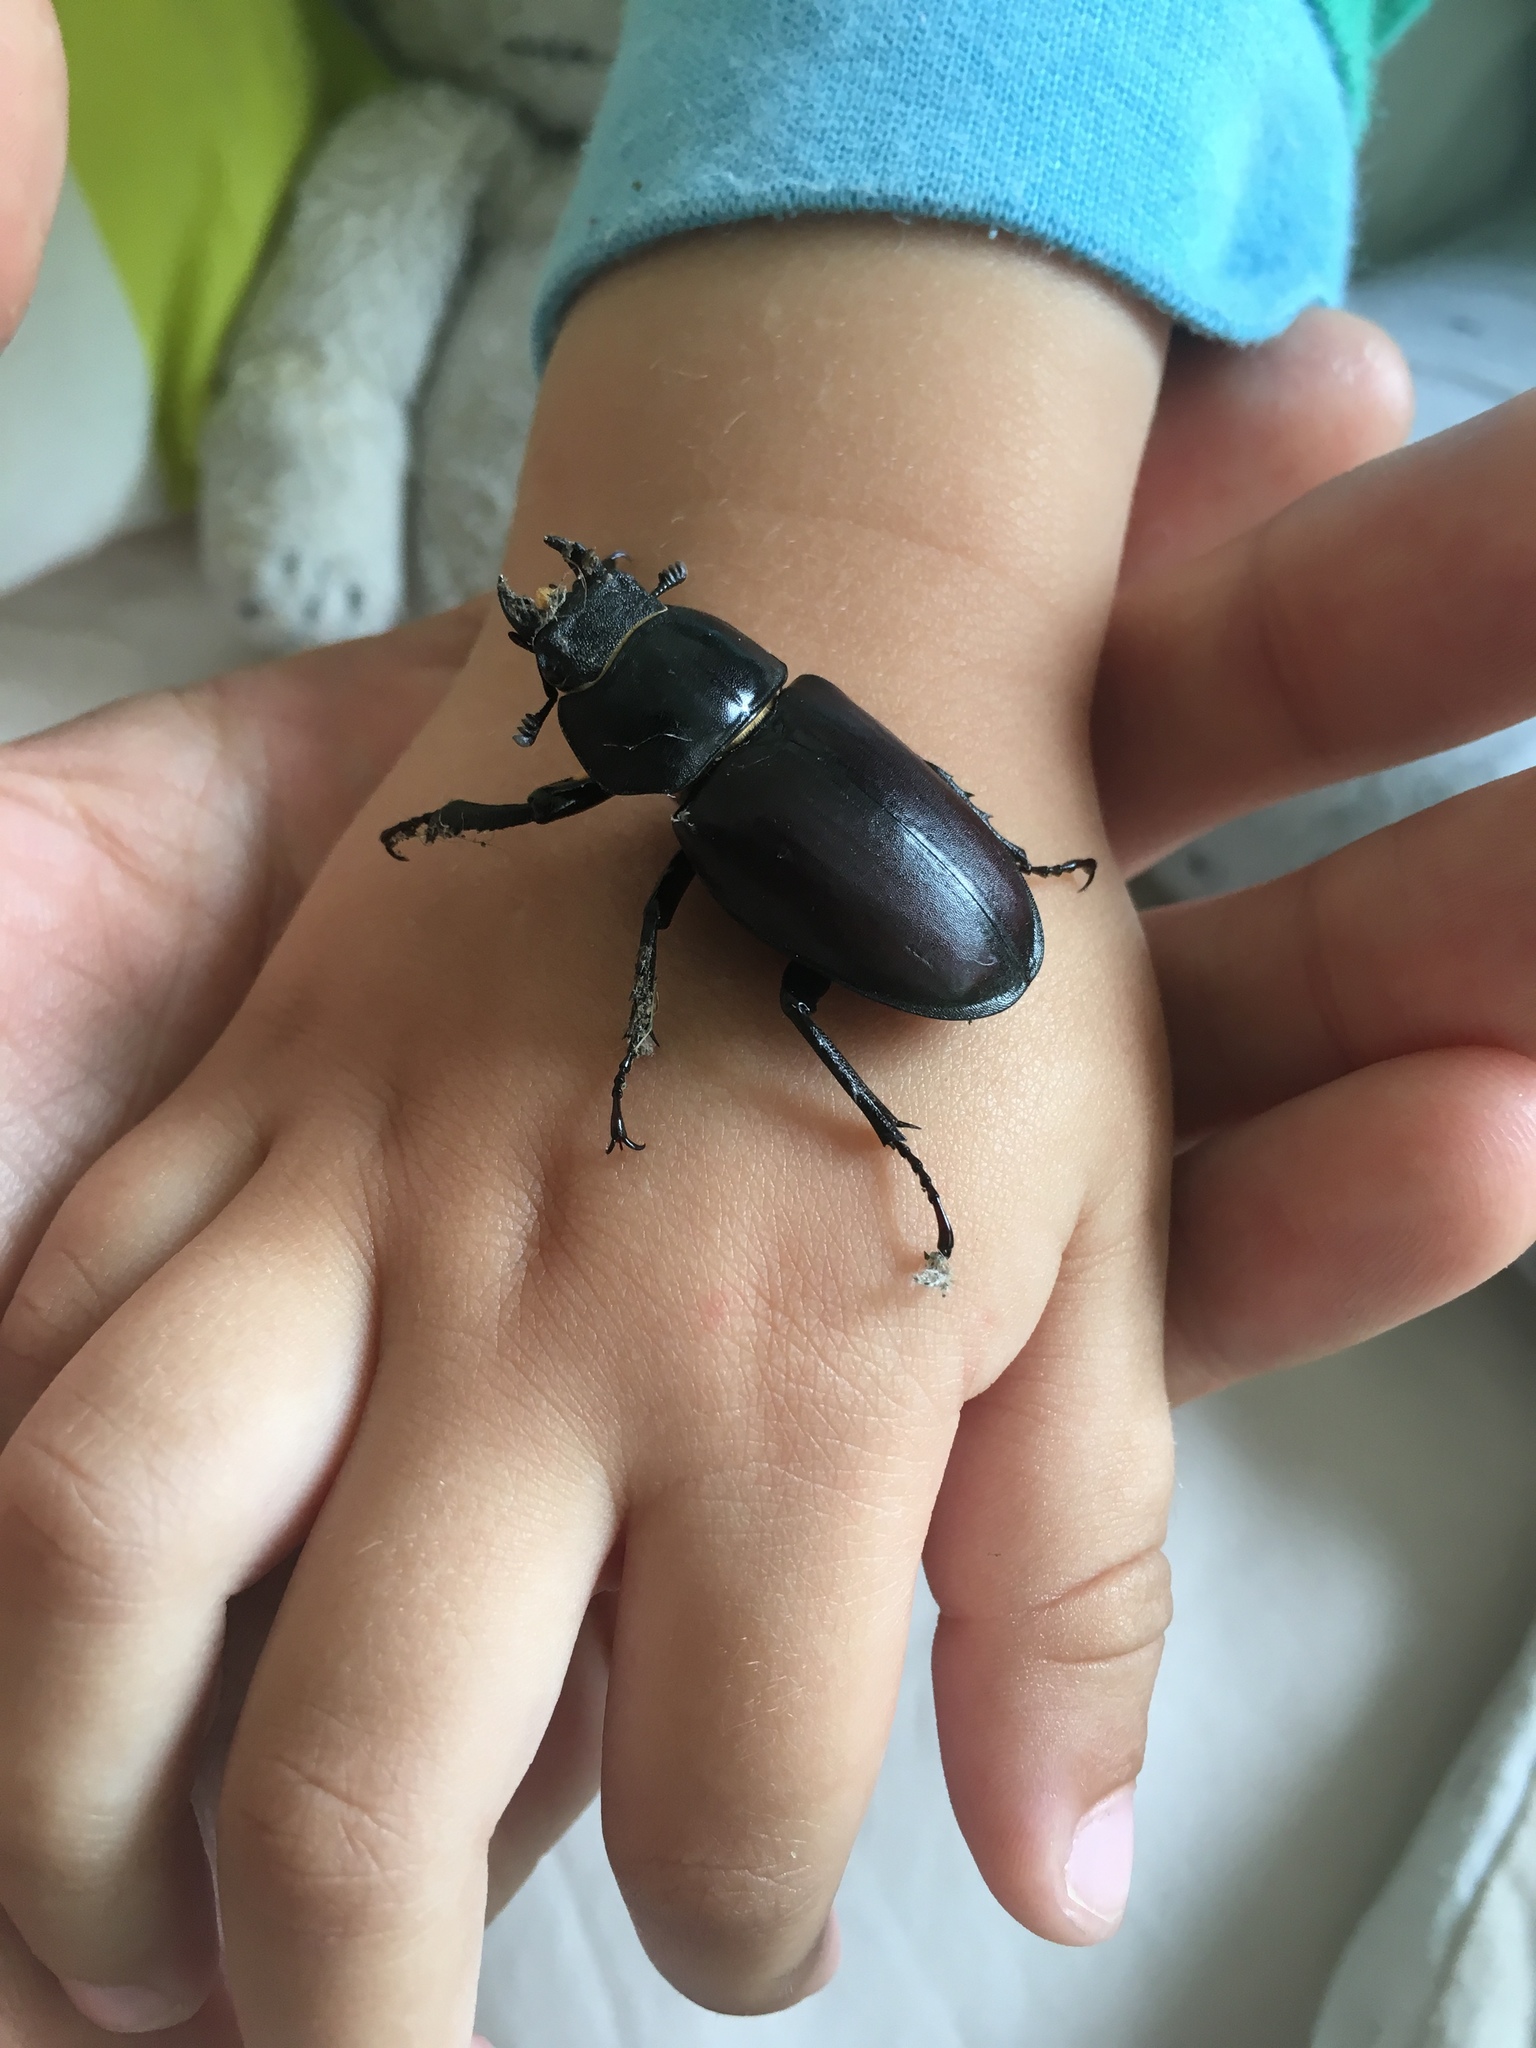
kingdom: Animalia
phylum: Arthropoda
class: Insecta
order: Coleoptera
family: Lucanidae
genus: Lucanus
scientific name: Lucanus cervus
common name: Stag beetle
